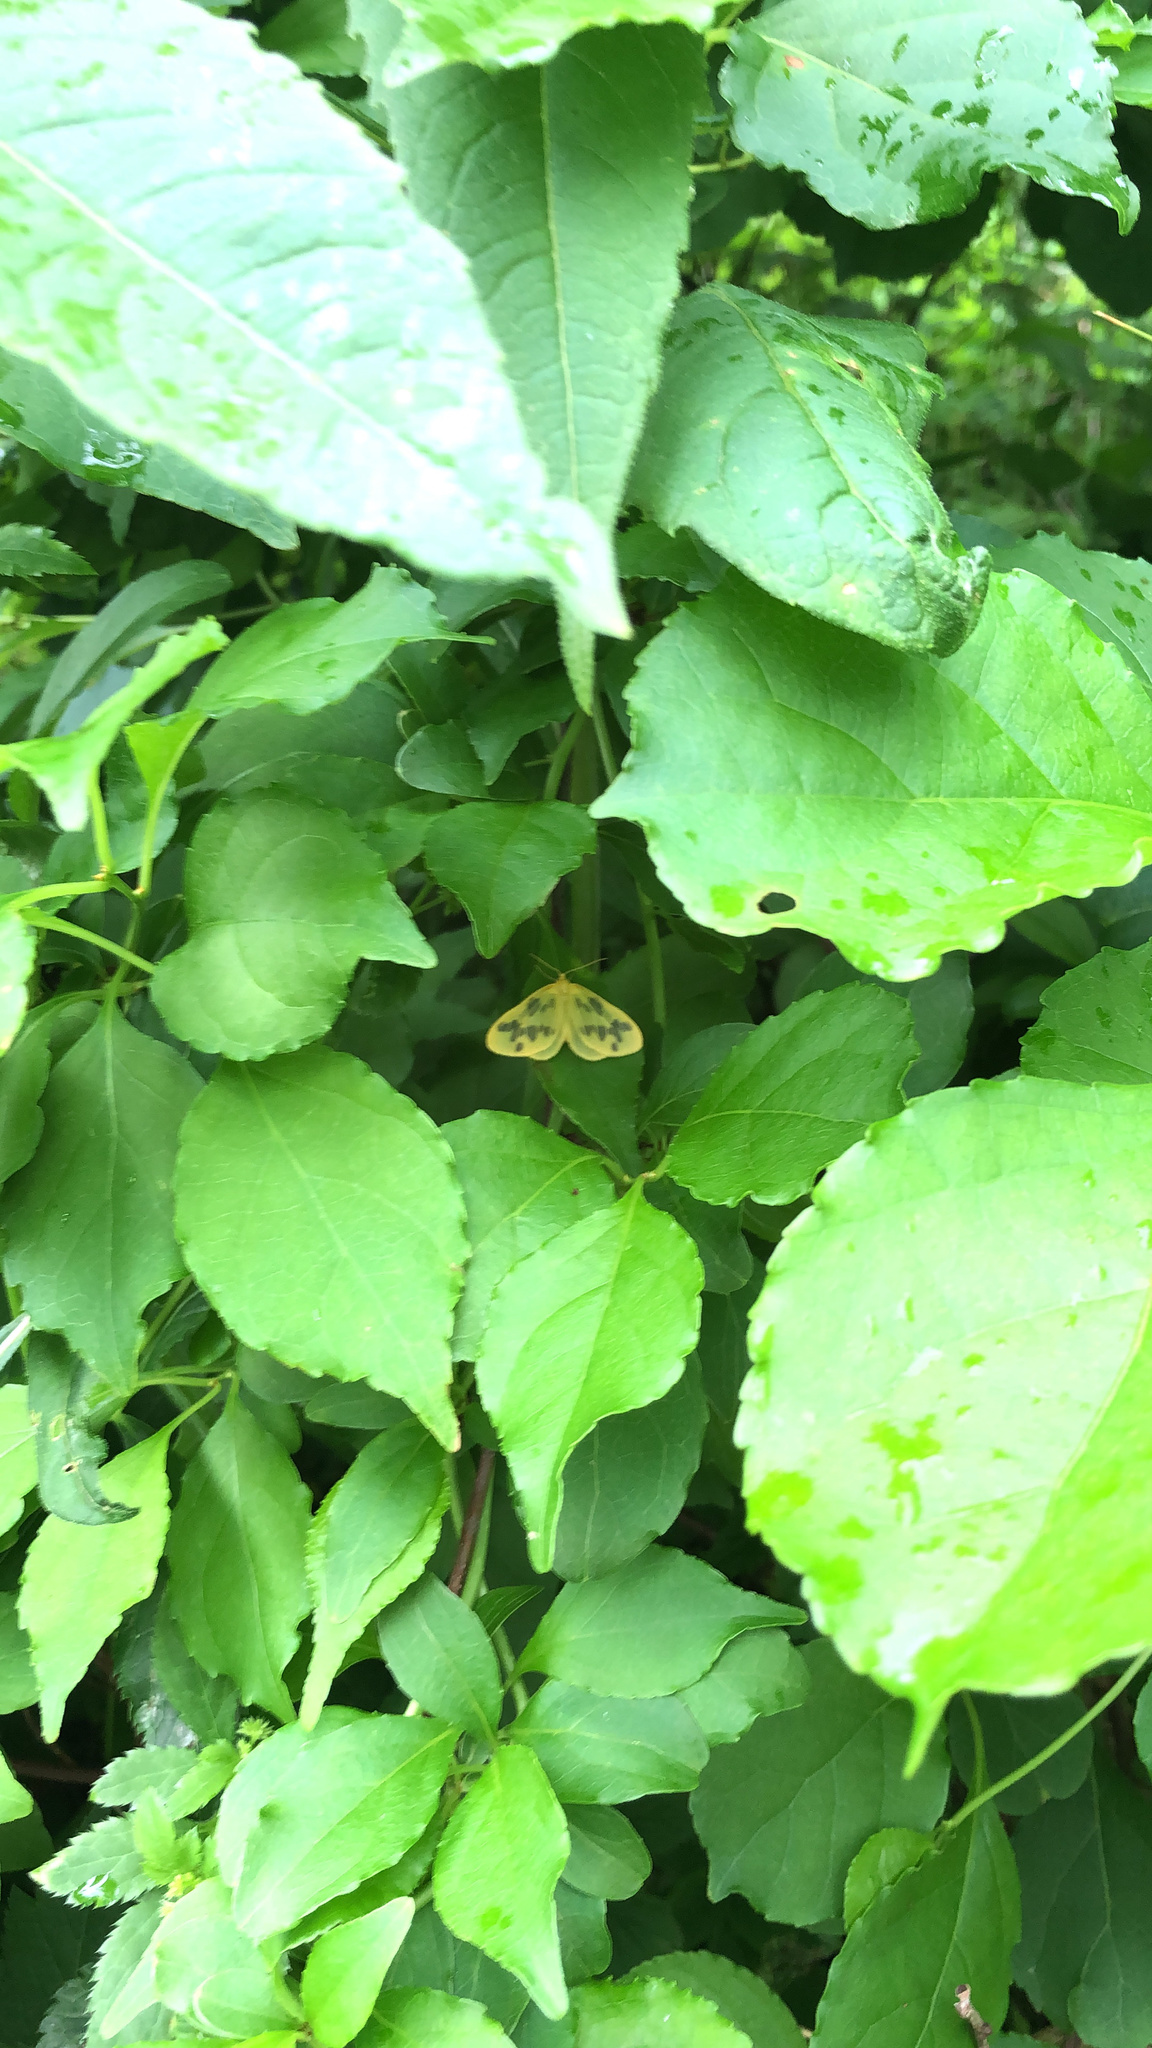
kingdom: Animalia
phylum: Arthropoda
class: Insecta
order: Lepidoptera
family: Geometridae
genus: Eubaphe
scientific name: Eubaphe mendica
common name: Beggar
